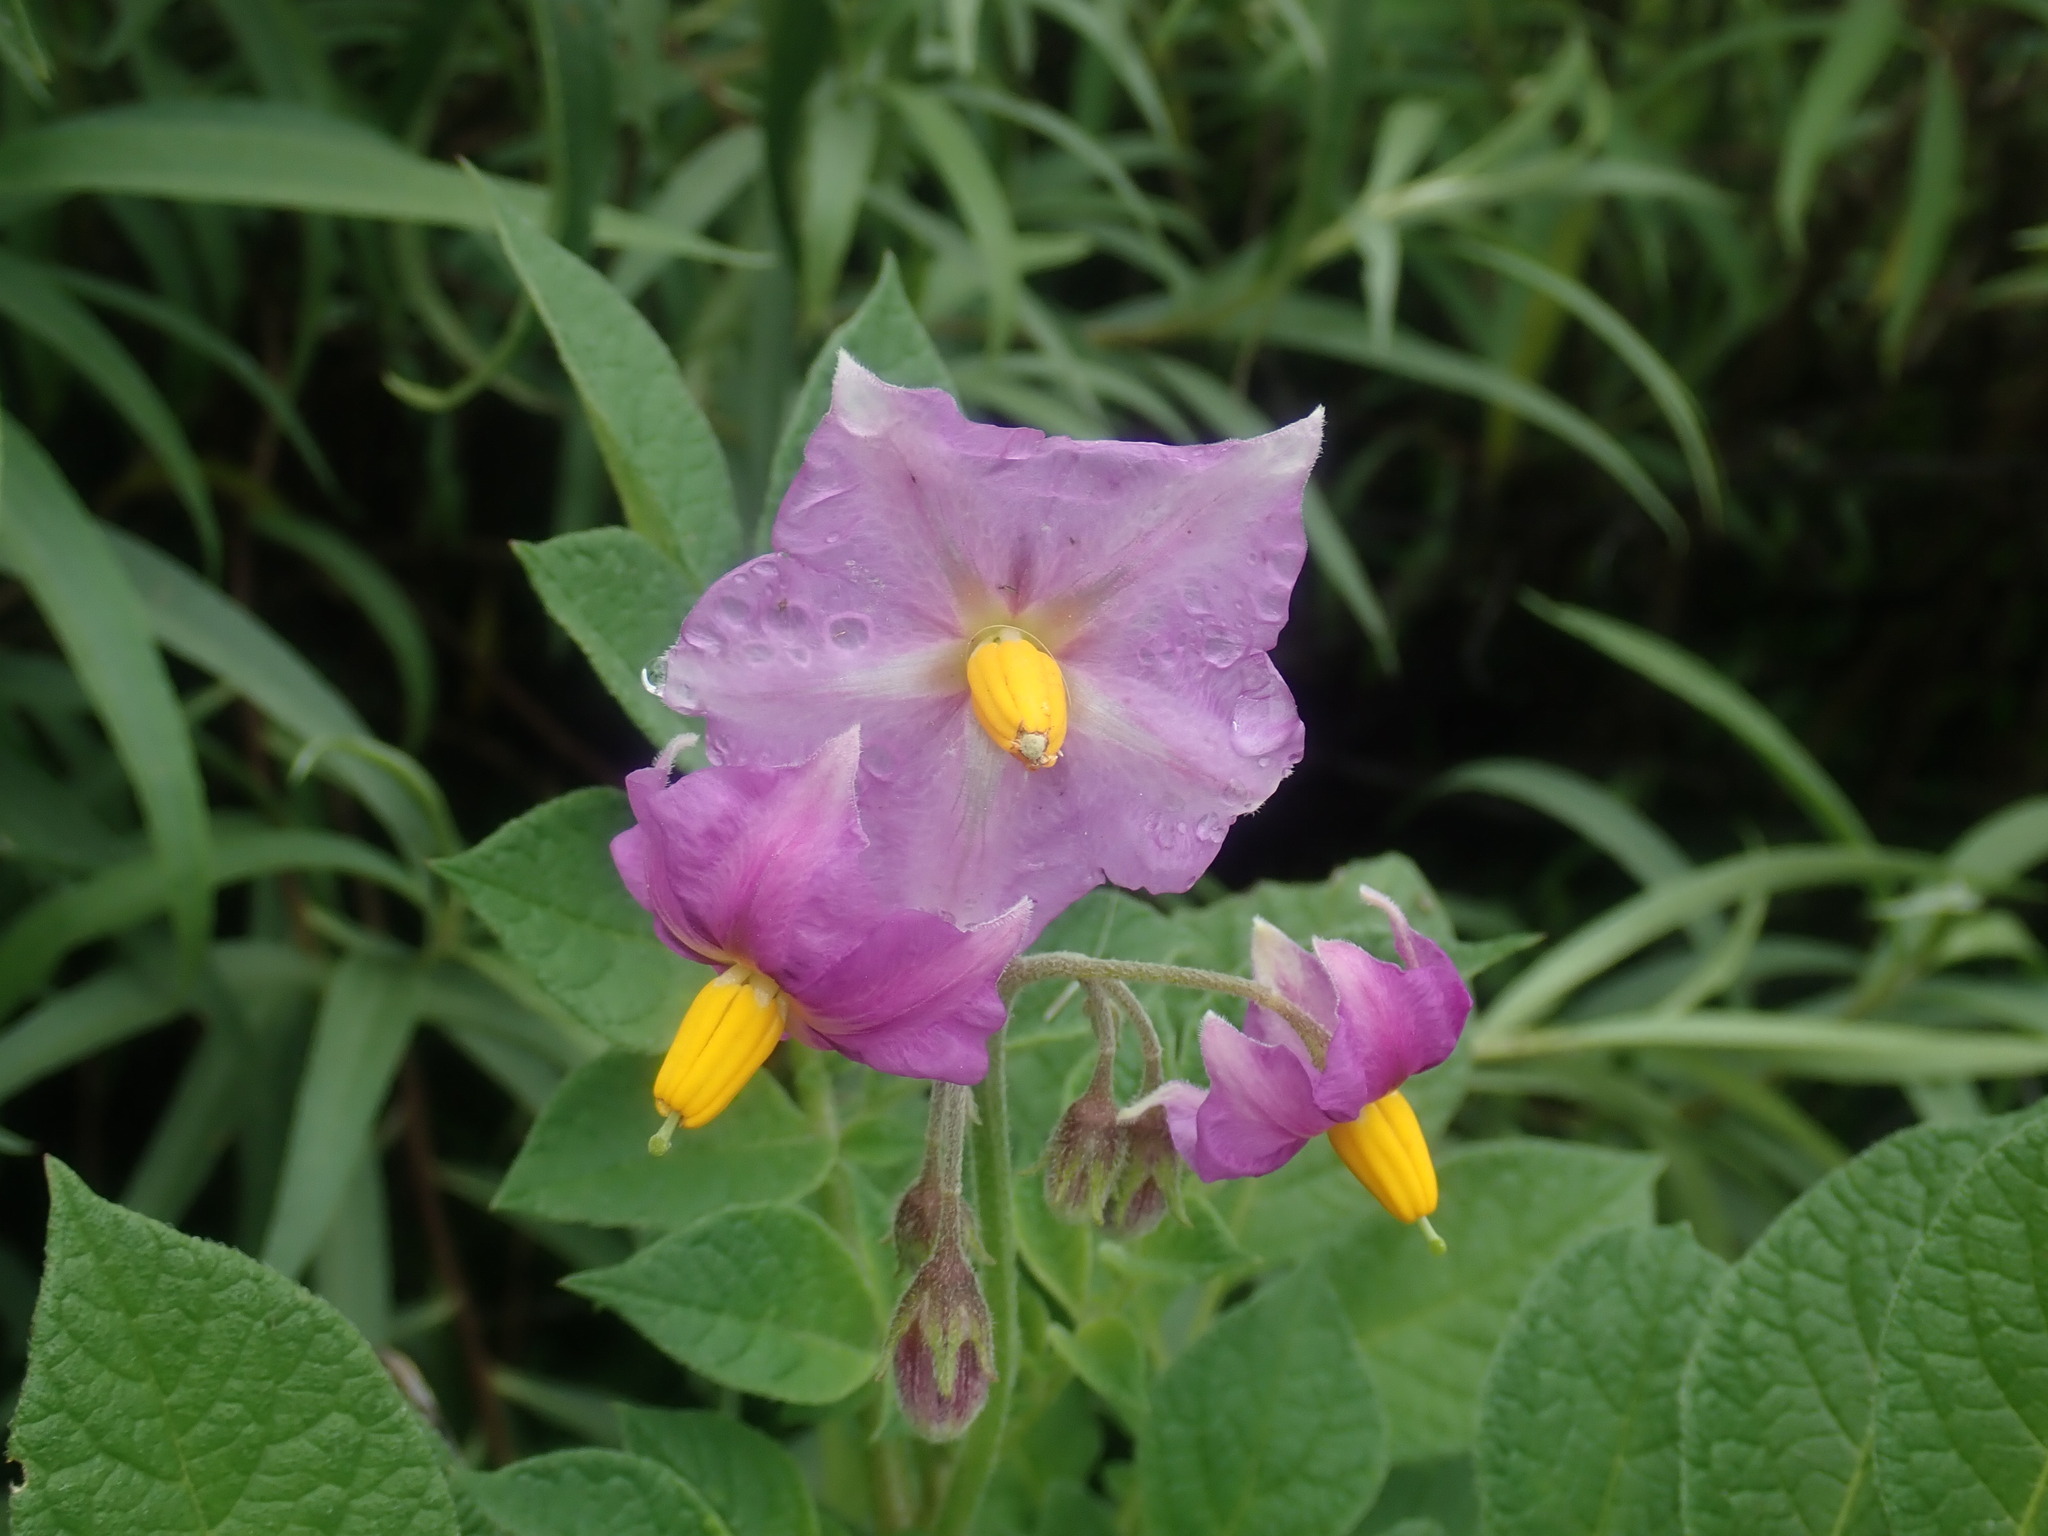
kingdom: Plantae
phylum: Tracheophyta
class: Magnoliopsida
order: Solanales
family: Solanaceae
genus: Solanum
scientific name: Solanum tuberosum
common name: Potato
